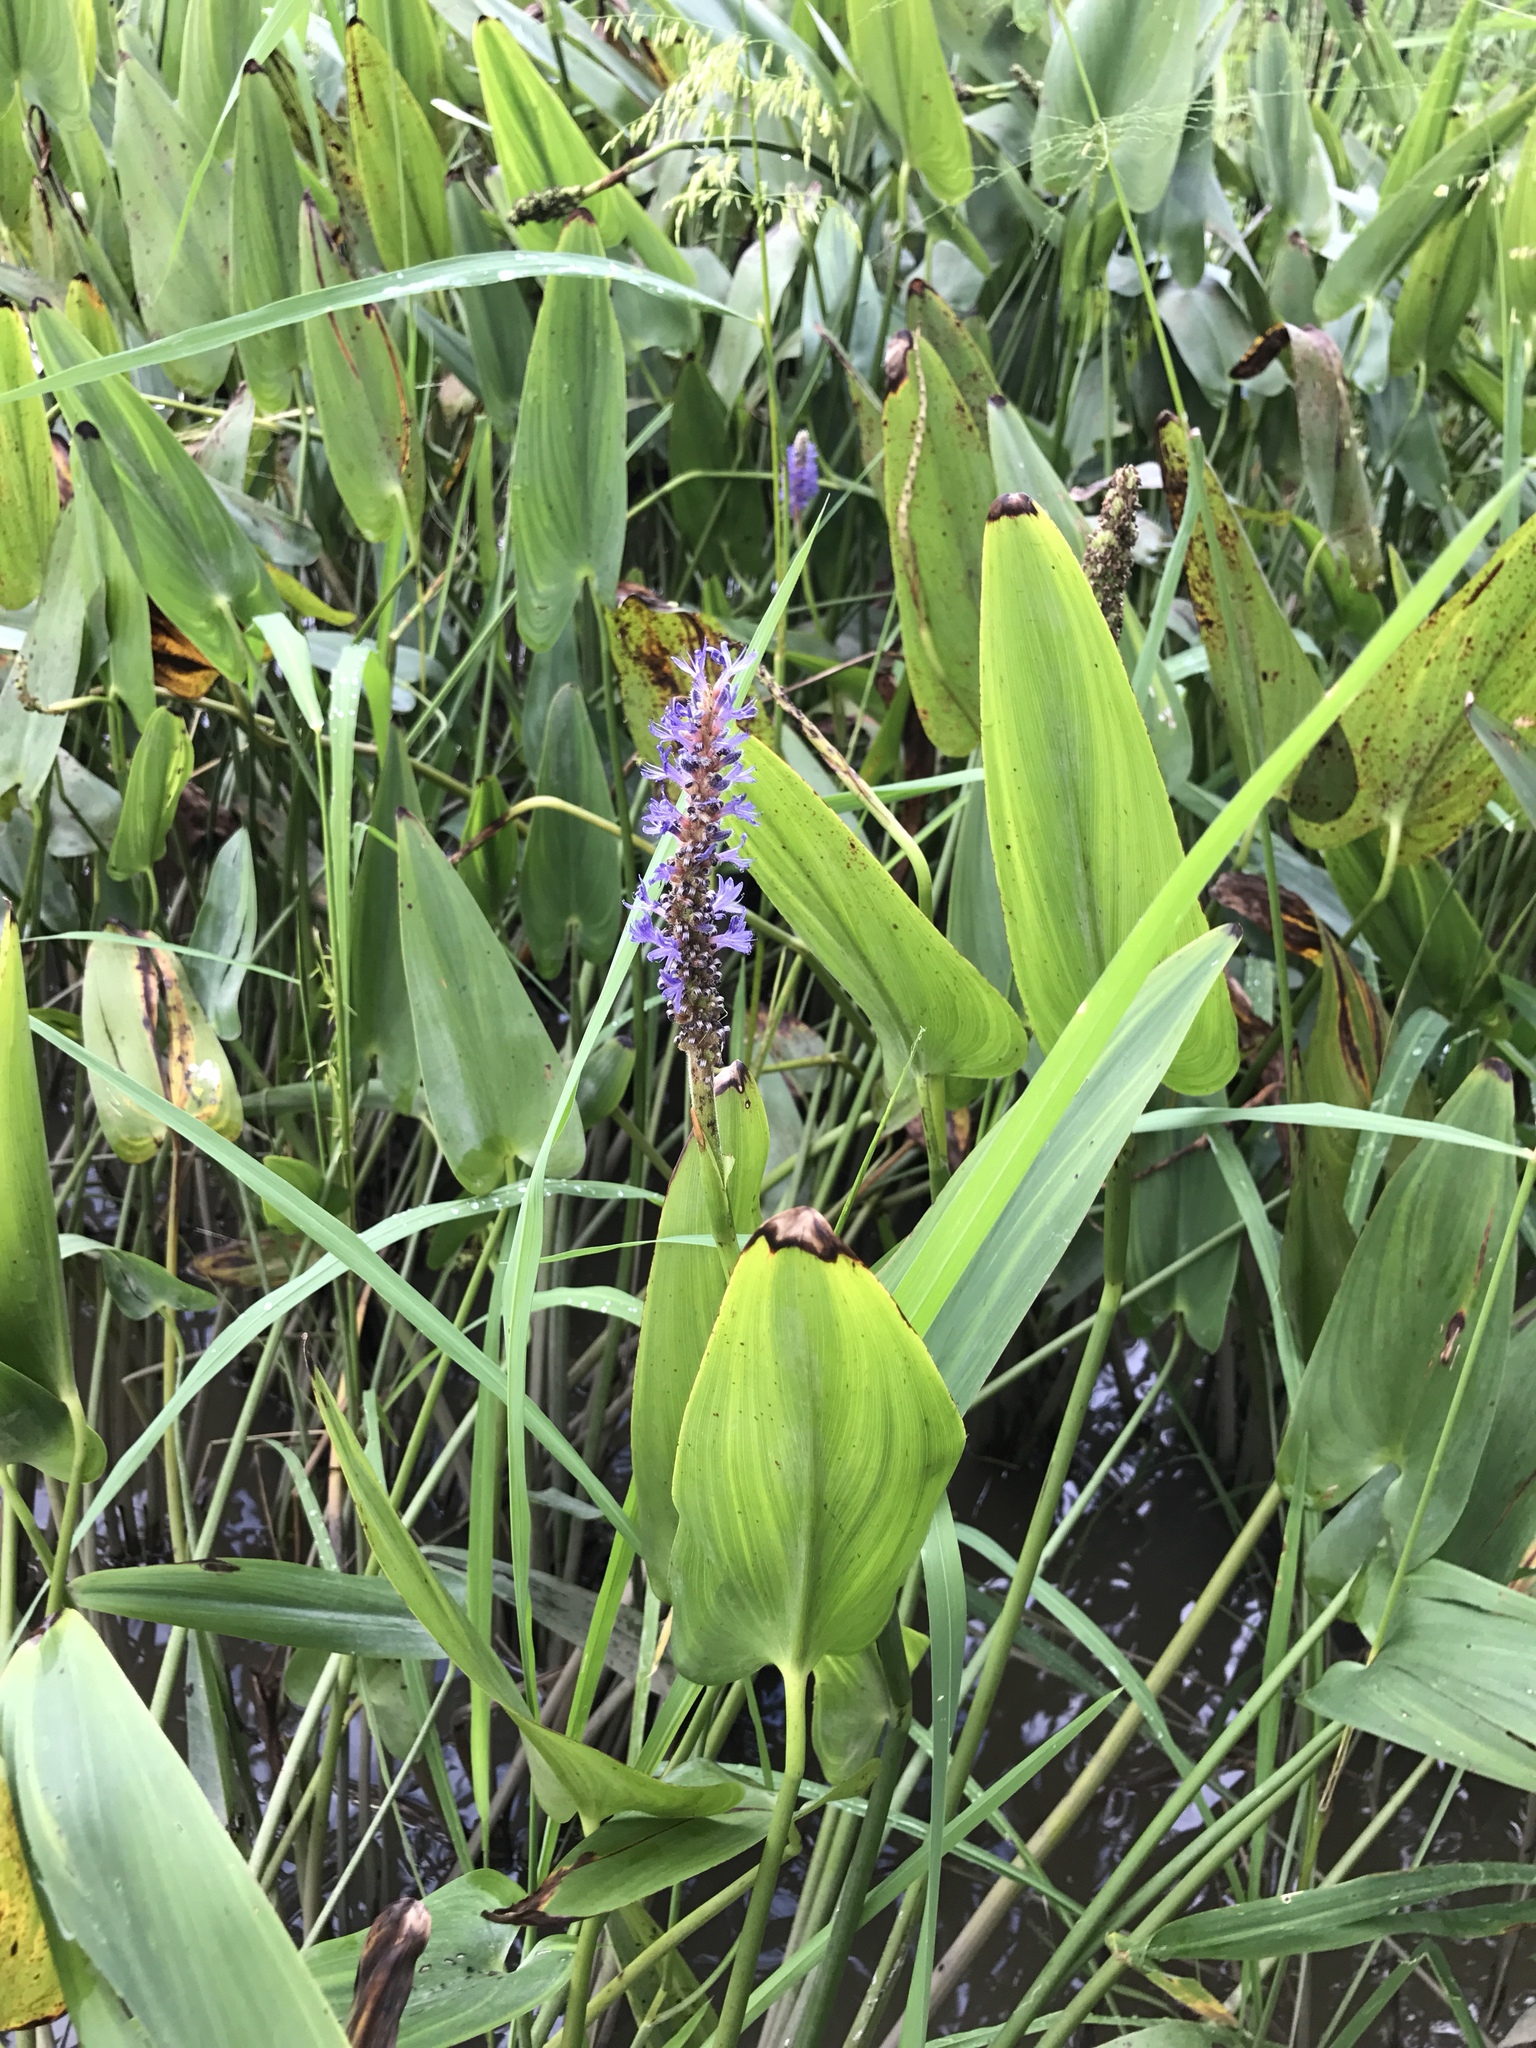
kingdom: Plantae
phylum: Tracheophyta
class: Liliopsida
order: Commelinales
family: Pontederiaceae
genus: Pontederia
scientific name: Pontederia cordata
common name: Pickerelweed
